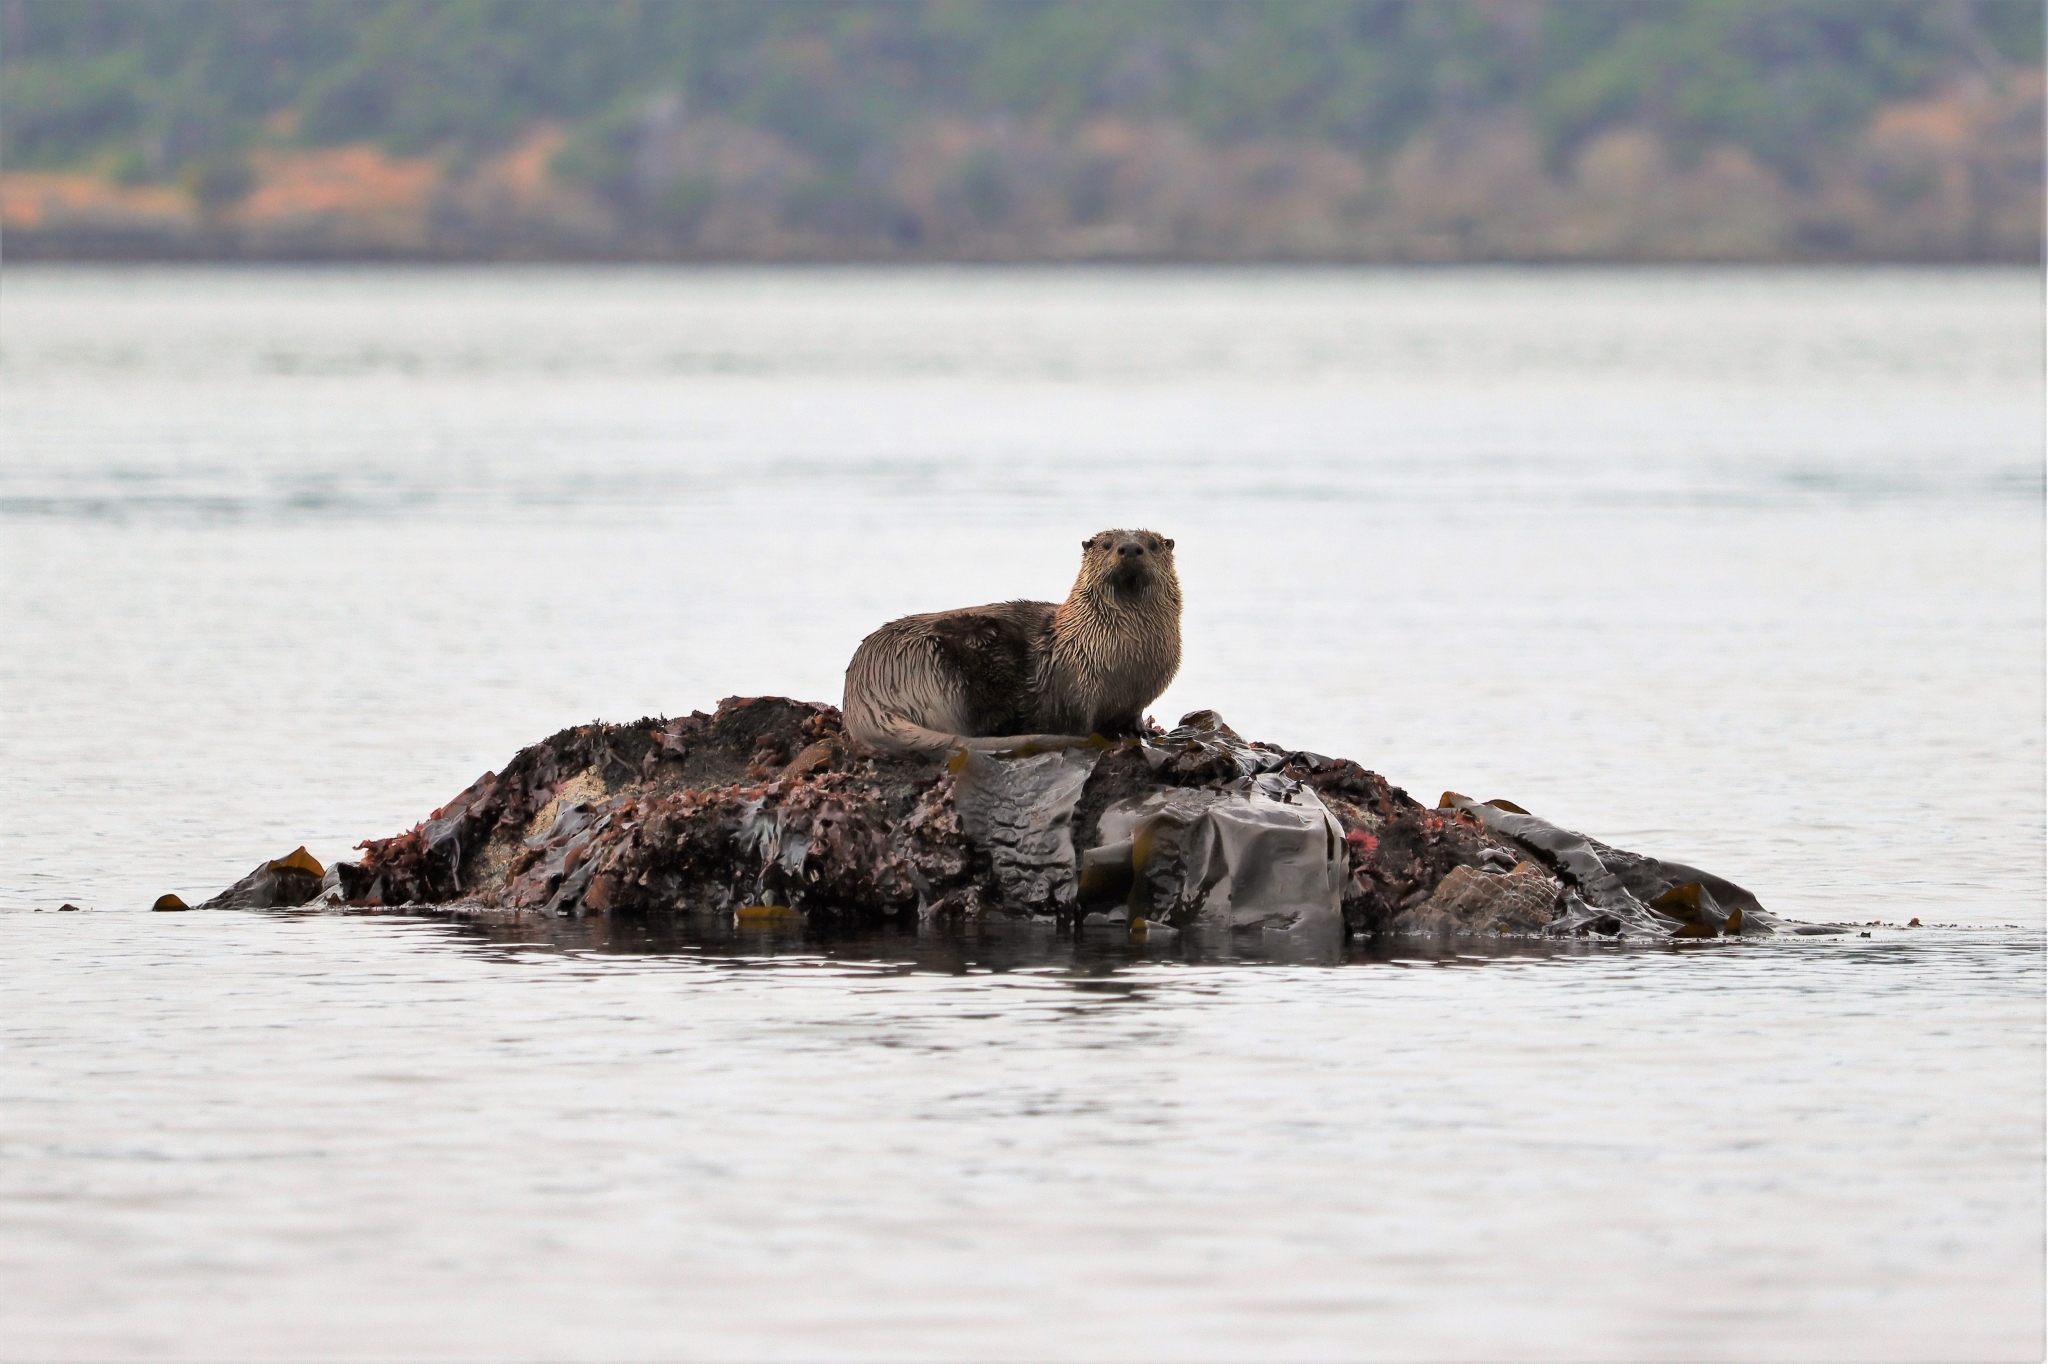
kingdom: Animalia
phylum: Chordata
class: Mammalia
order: Carnivora
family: Mustelidae
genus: Lontra
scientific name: Lontra canadensis
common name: North american river otter
